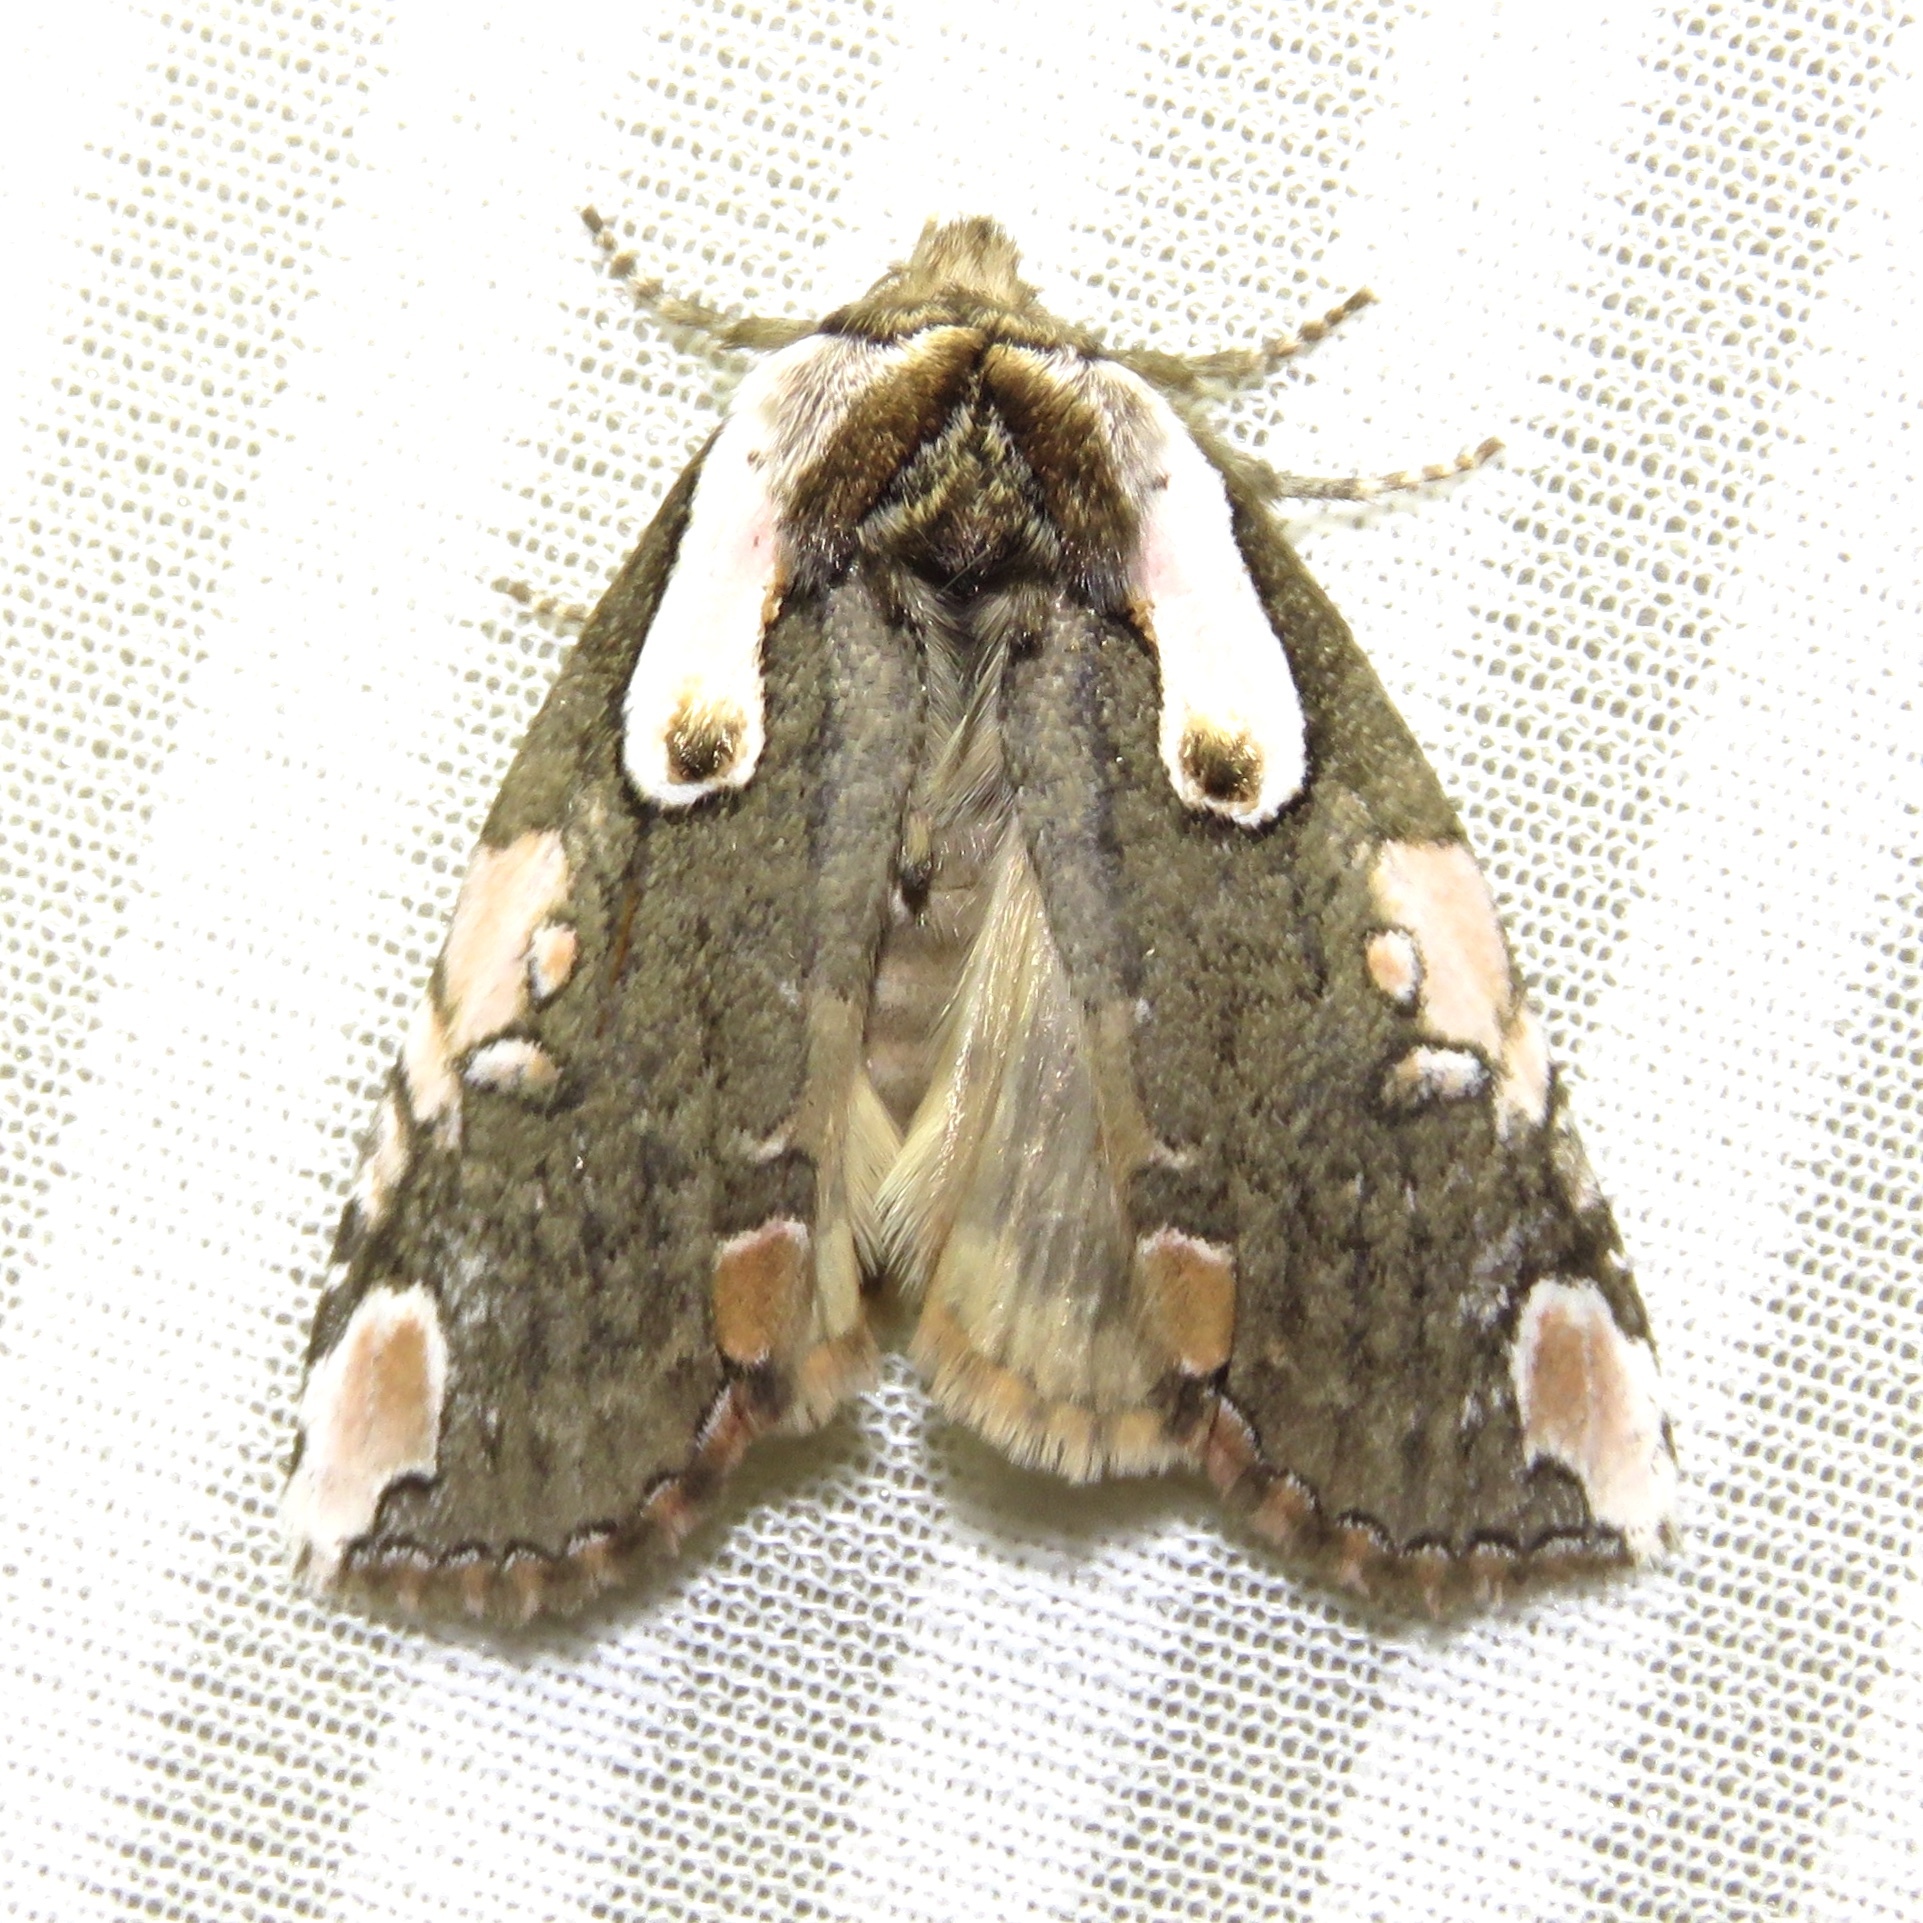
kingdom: Animalia
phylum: Arthropoda
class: Insecta
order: Lepidoptera
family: Drepanidae
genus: Euthyatira
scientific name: Euthyatira pudens
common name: Dogwood thyatirid moth
